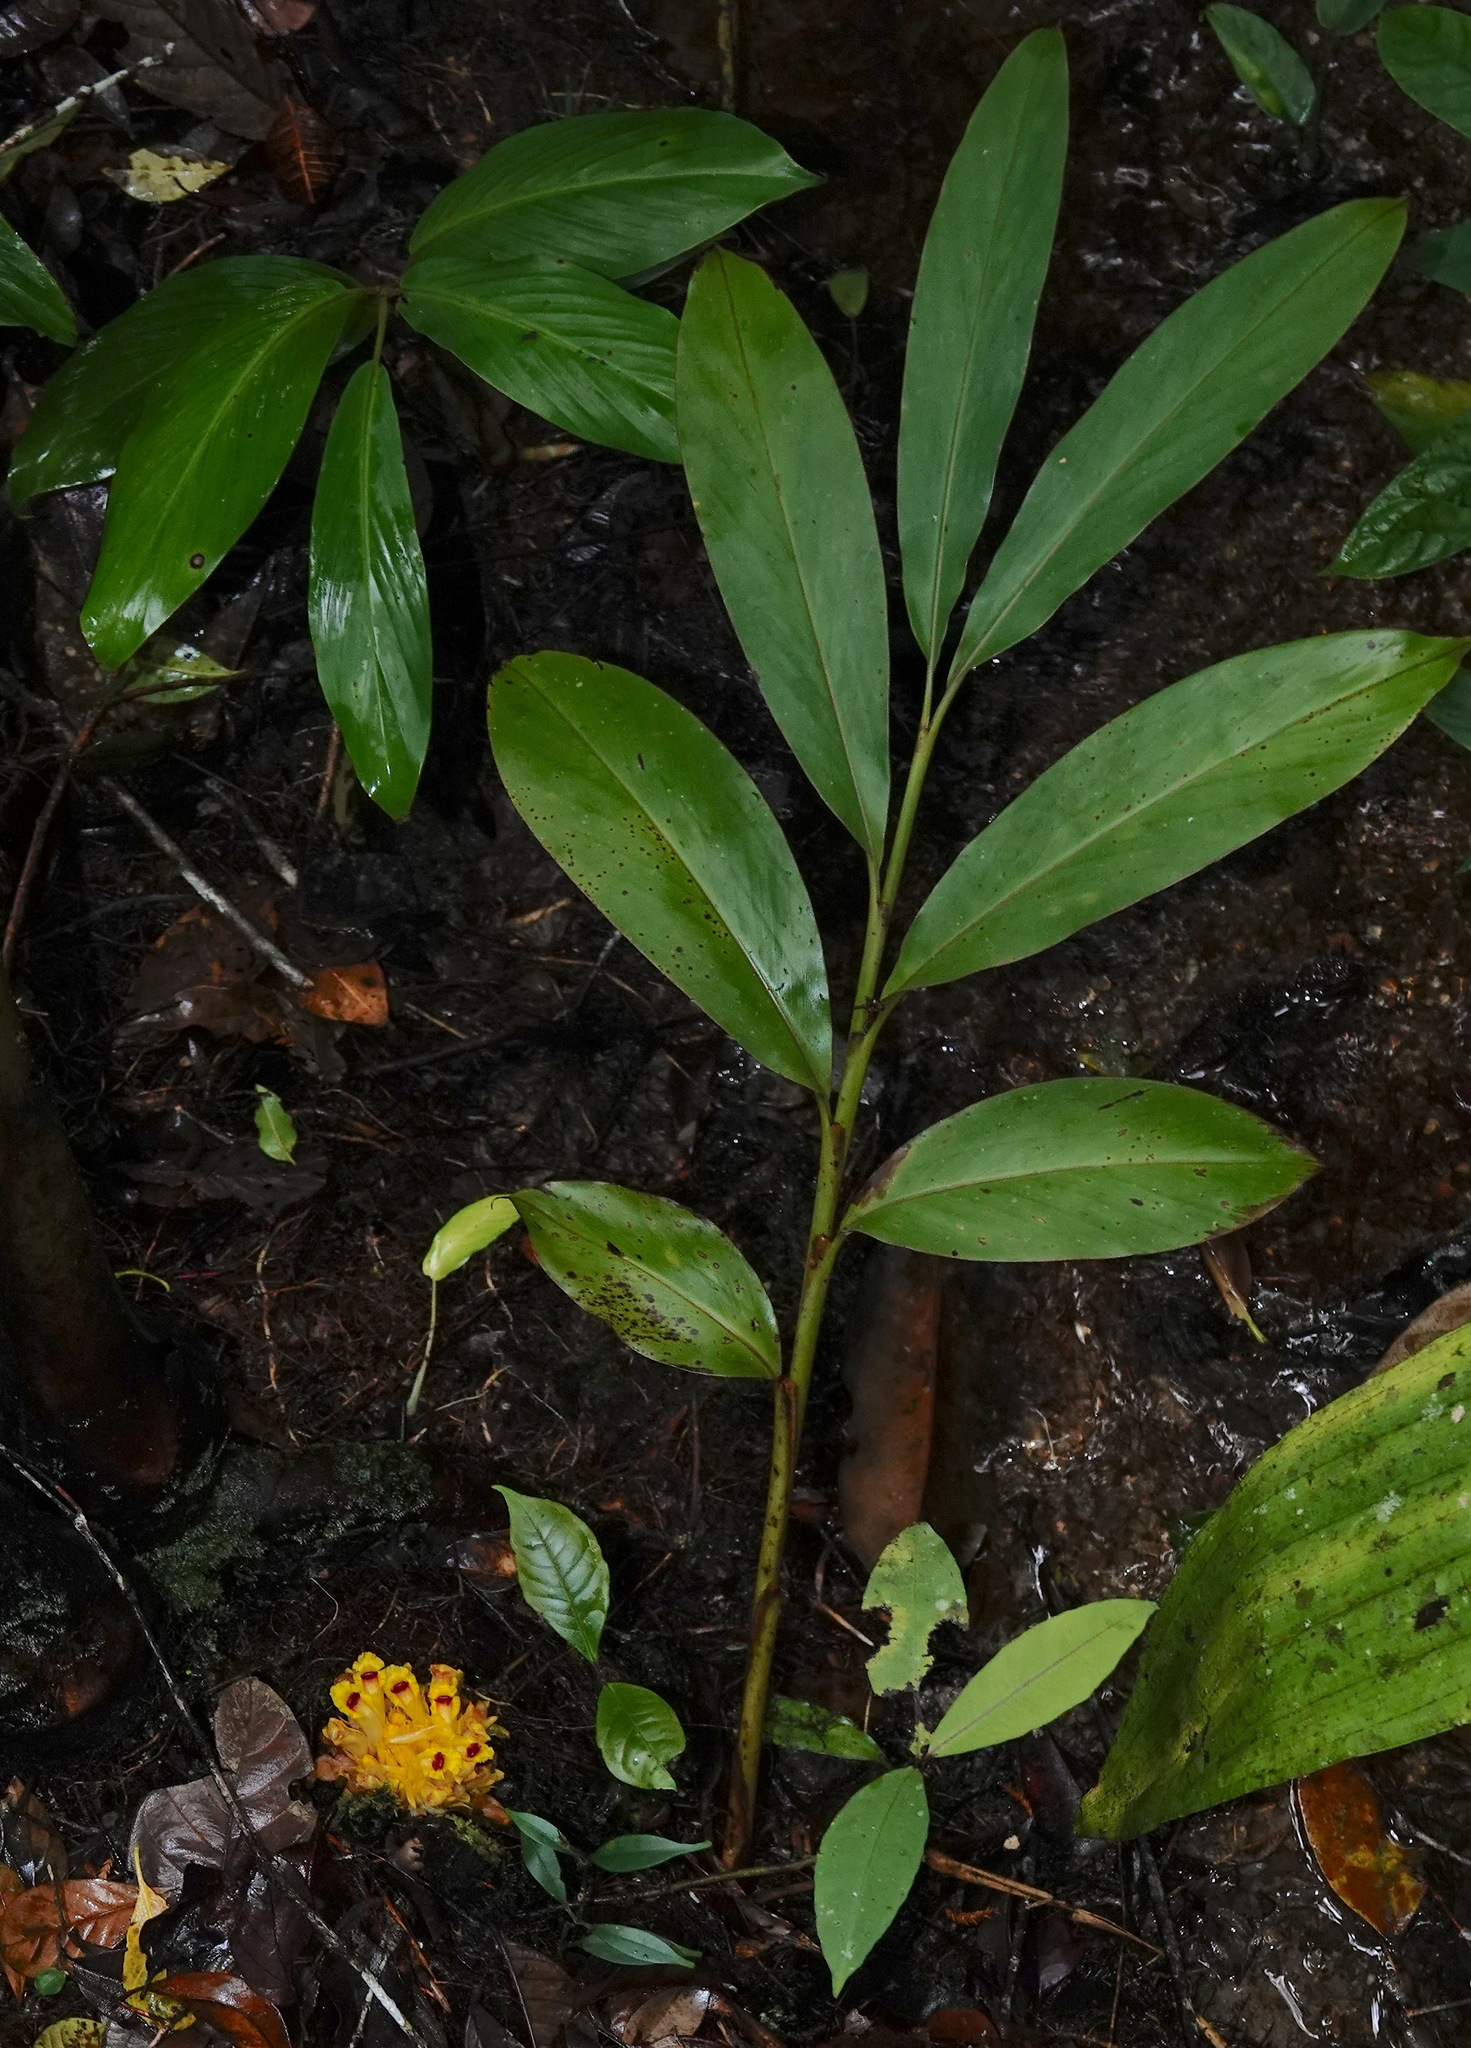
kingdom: Plantae
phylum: Tracheophyta
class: Liliopsida
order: Zingiberales
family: Zingiberaceae
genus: Etlingera
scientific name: Etlingera burttii
